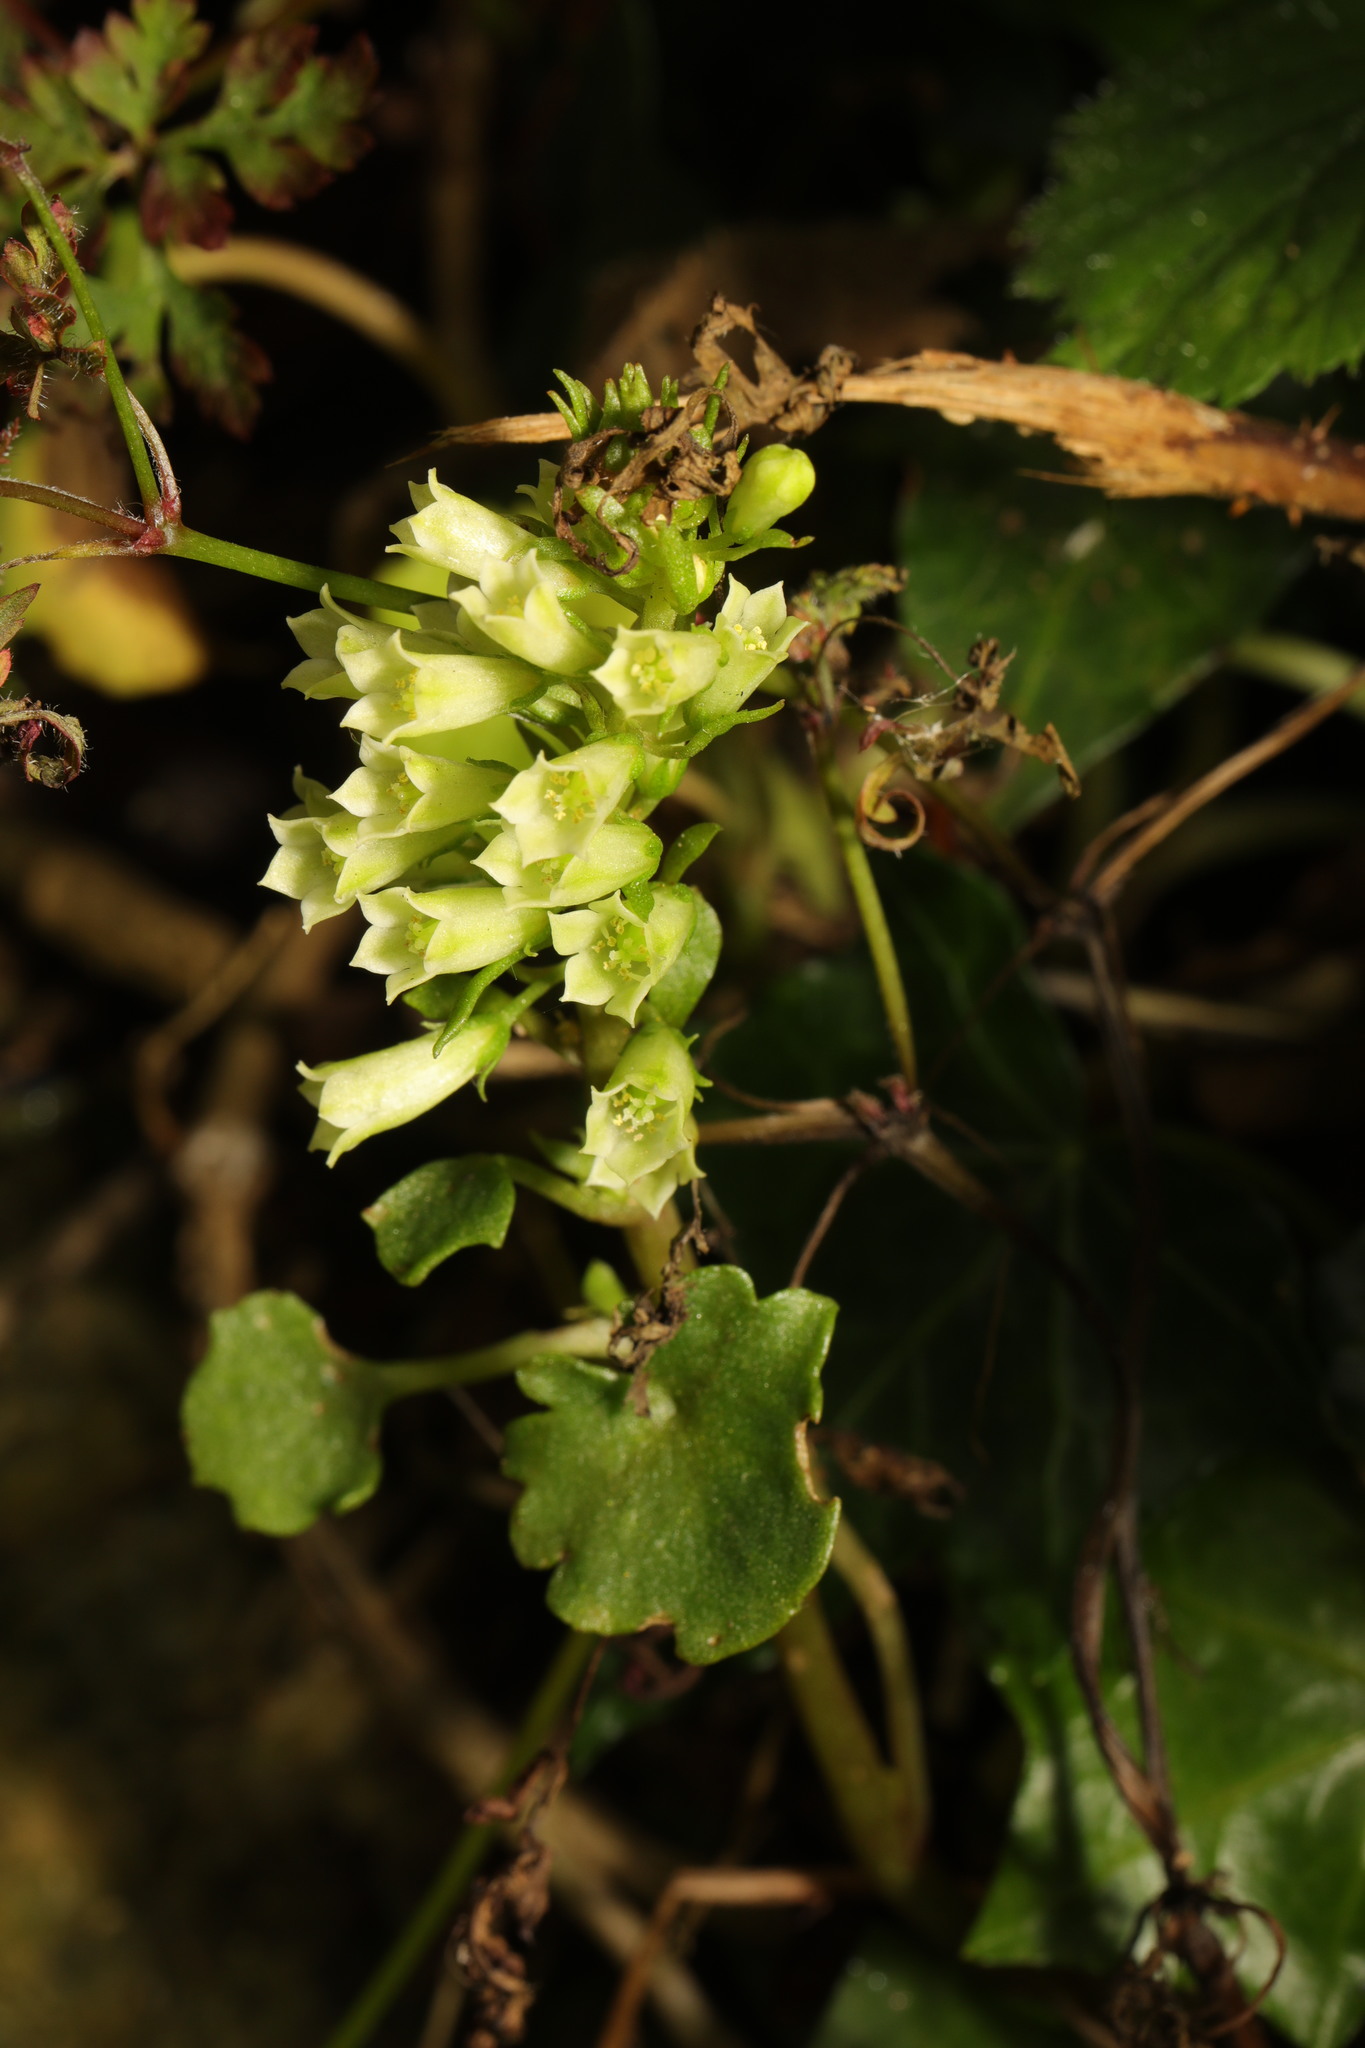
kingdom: Plantae
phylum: Tracheophyta
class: Magnoliopsida
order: Saxifragales
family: Crassulaceae
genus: Umbilicus
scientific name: Umbilicus rupestris
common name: Navelwort
